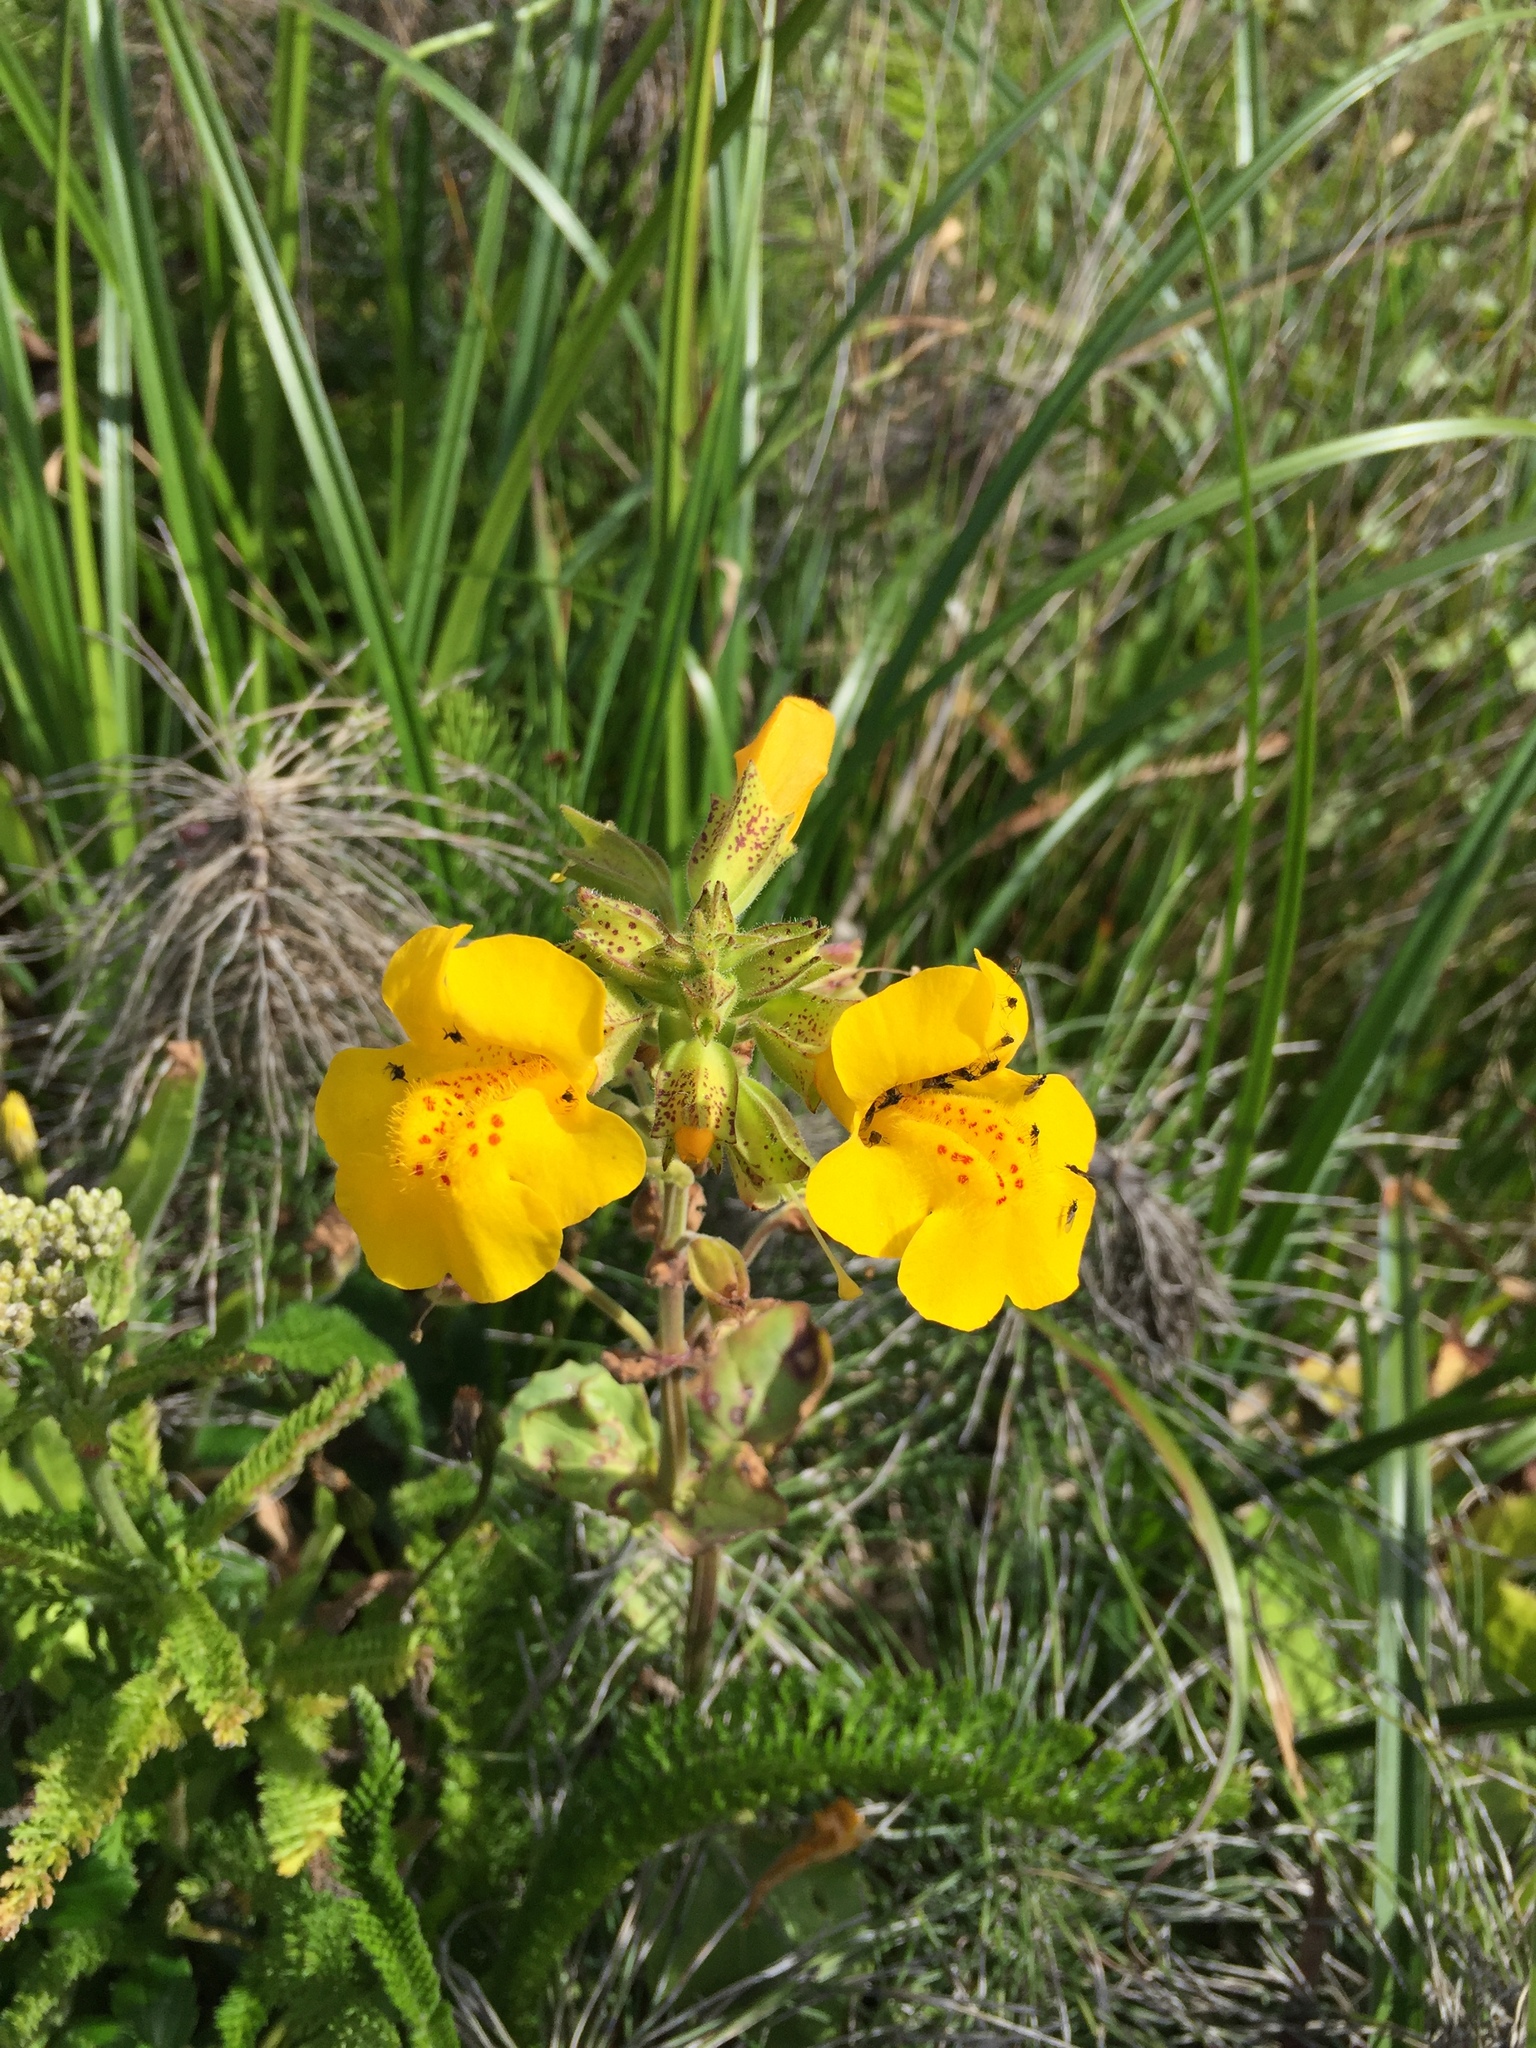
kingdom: Plantae
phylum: Tracheophyta
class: Magnoliopsida
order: Lamiales
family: Phrymaceae
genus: Erythranthe
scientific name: Erythranthe grandis
